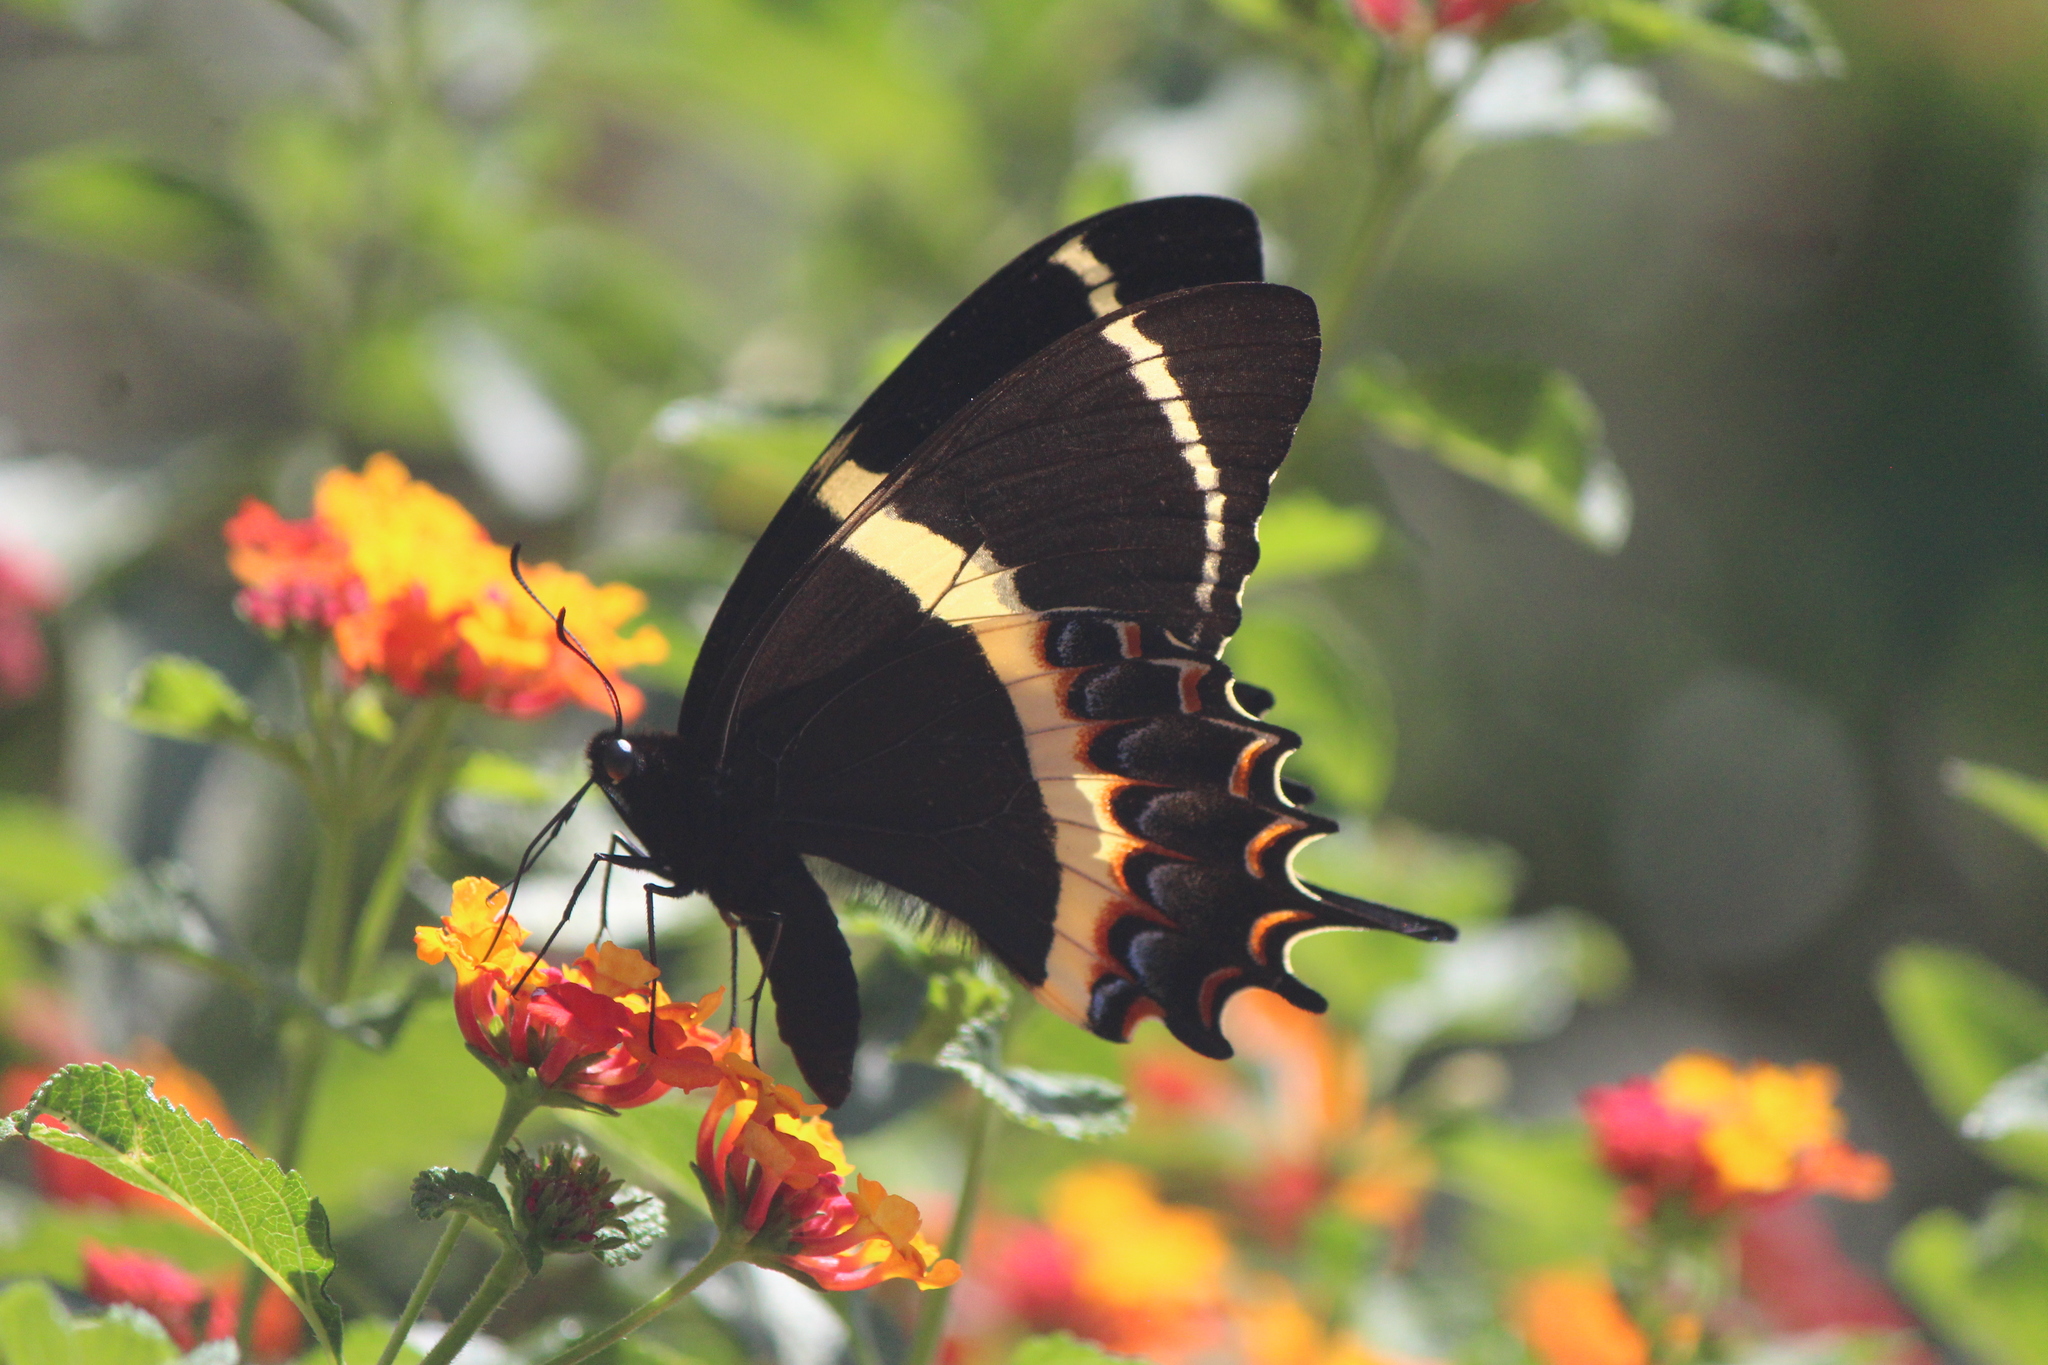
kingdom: Animalia
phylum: Arthropoda
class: Insecta
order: Lepidoptera
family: Papilionidae
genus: Papilio
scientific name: Papilio garamas
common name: Magnificent swallowtail
